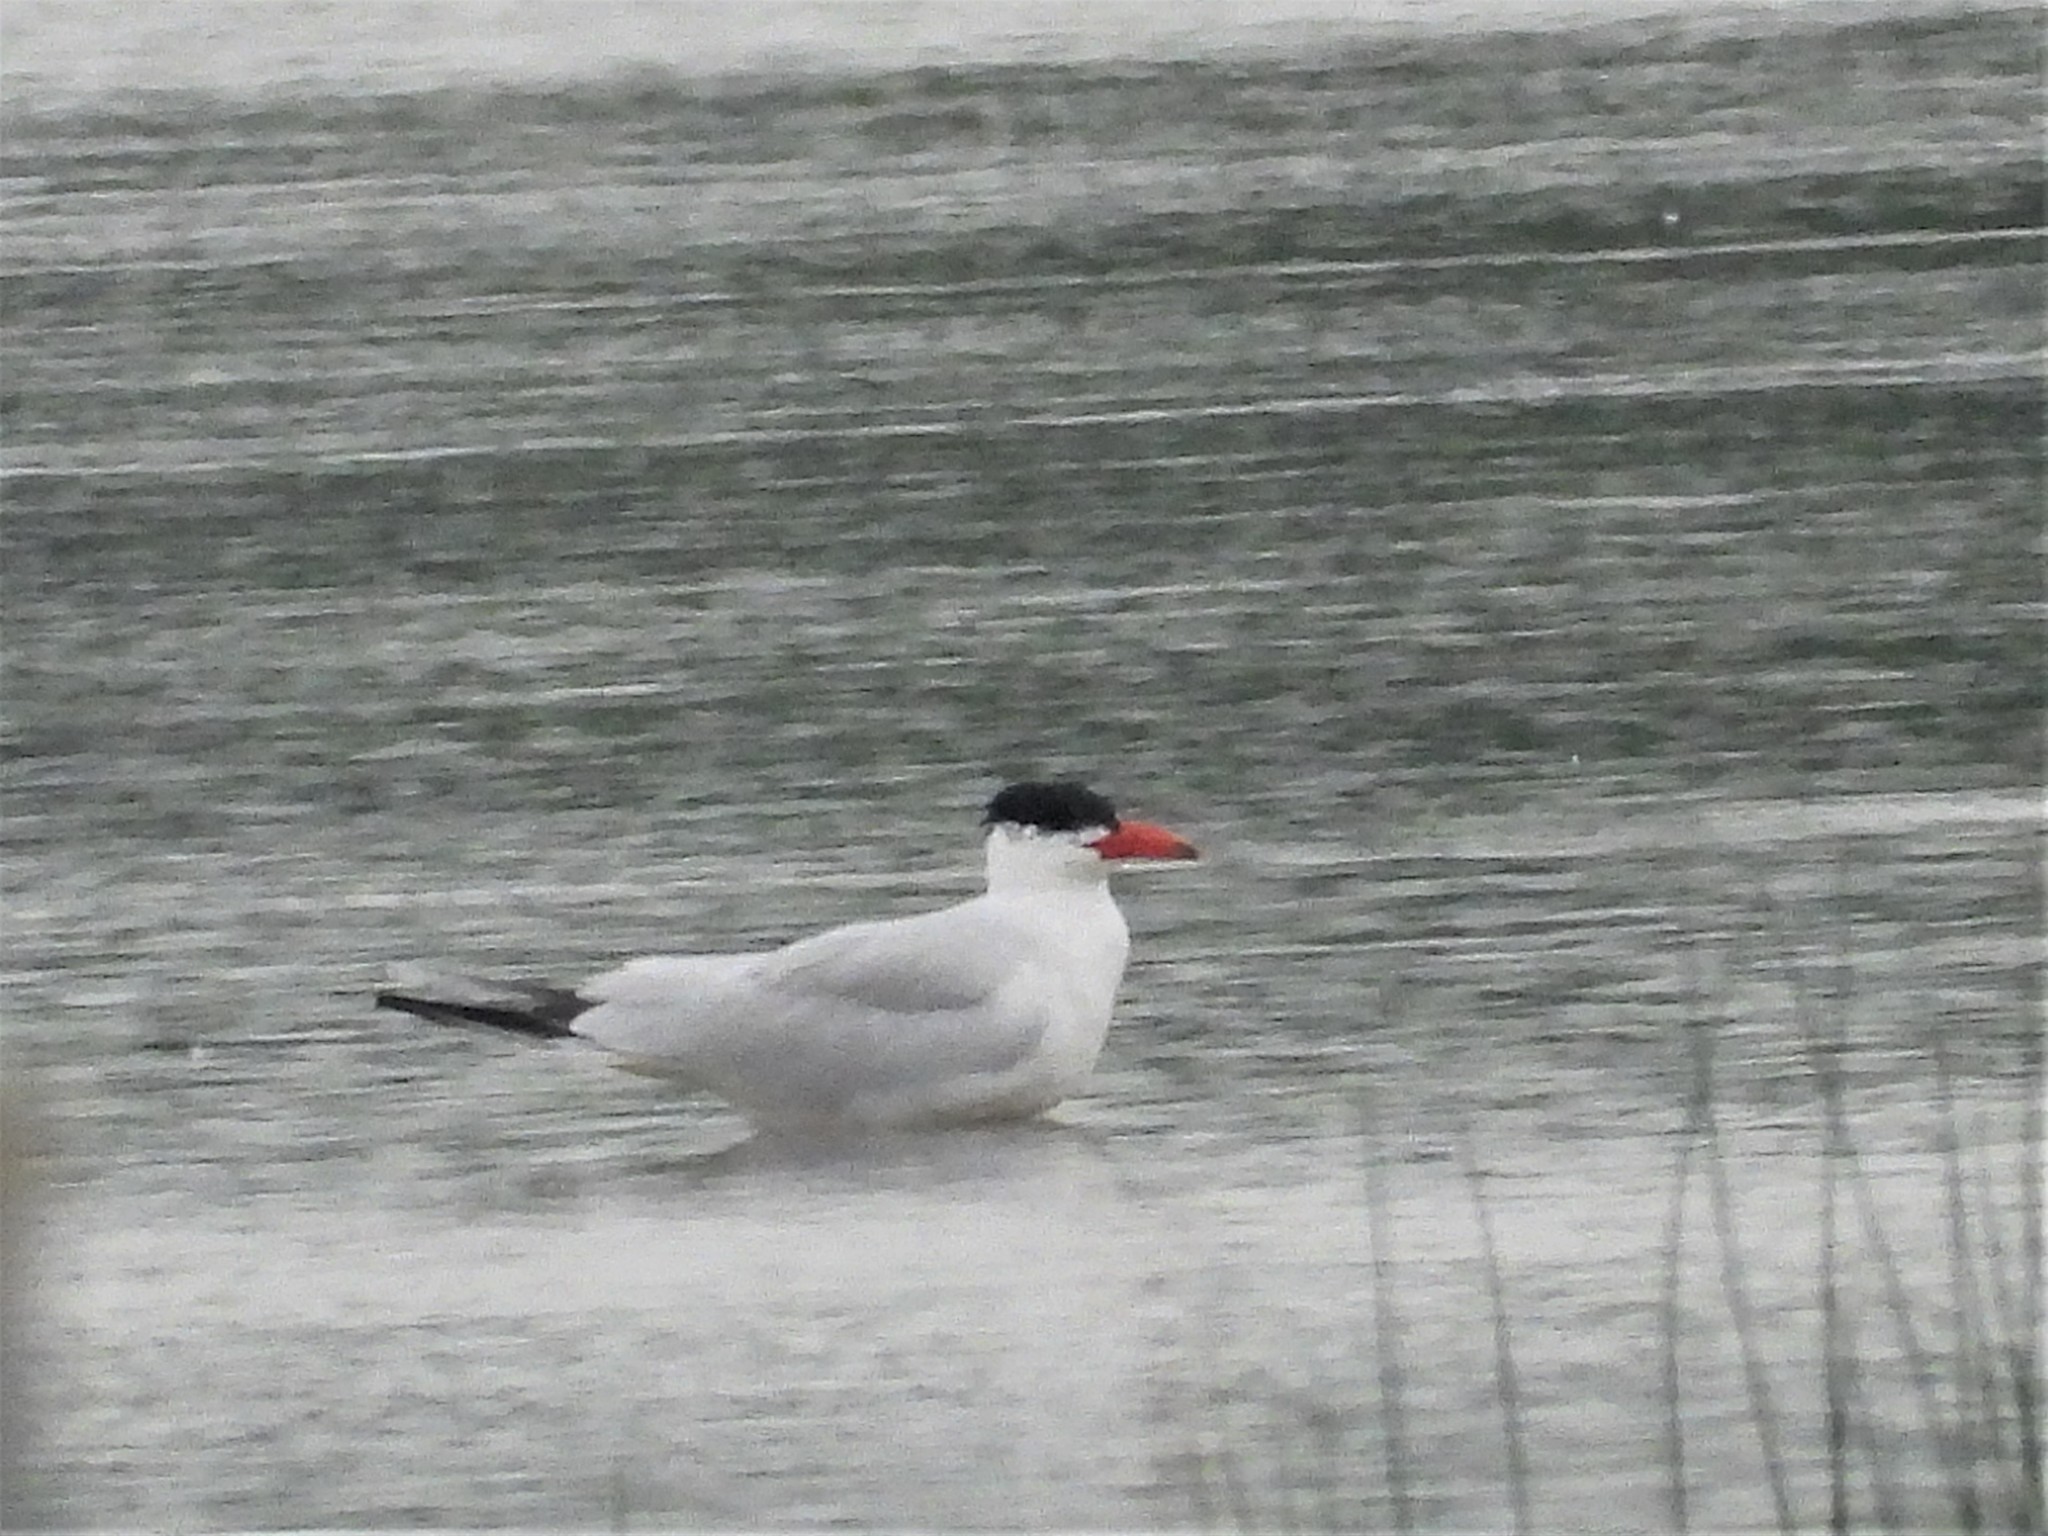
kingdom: Animalia
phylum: Chordata
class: Aves
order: Charadriiformes
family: Laridae
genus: Hydroprogne
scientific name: Hydroprogne caspia
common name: Caspian tern
